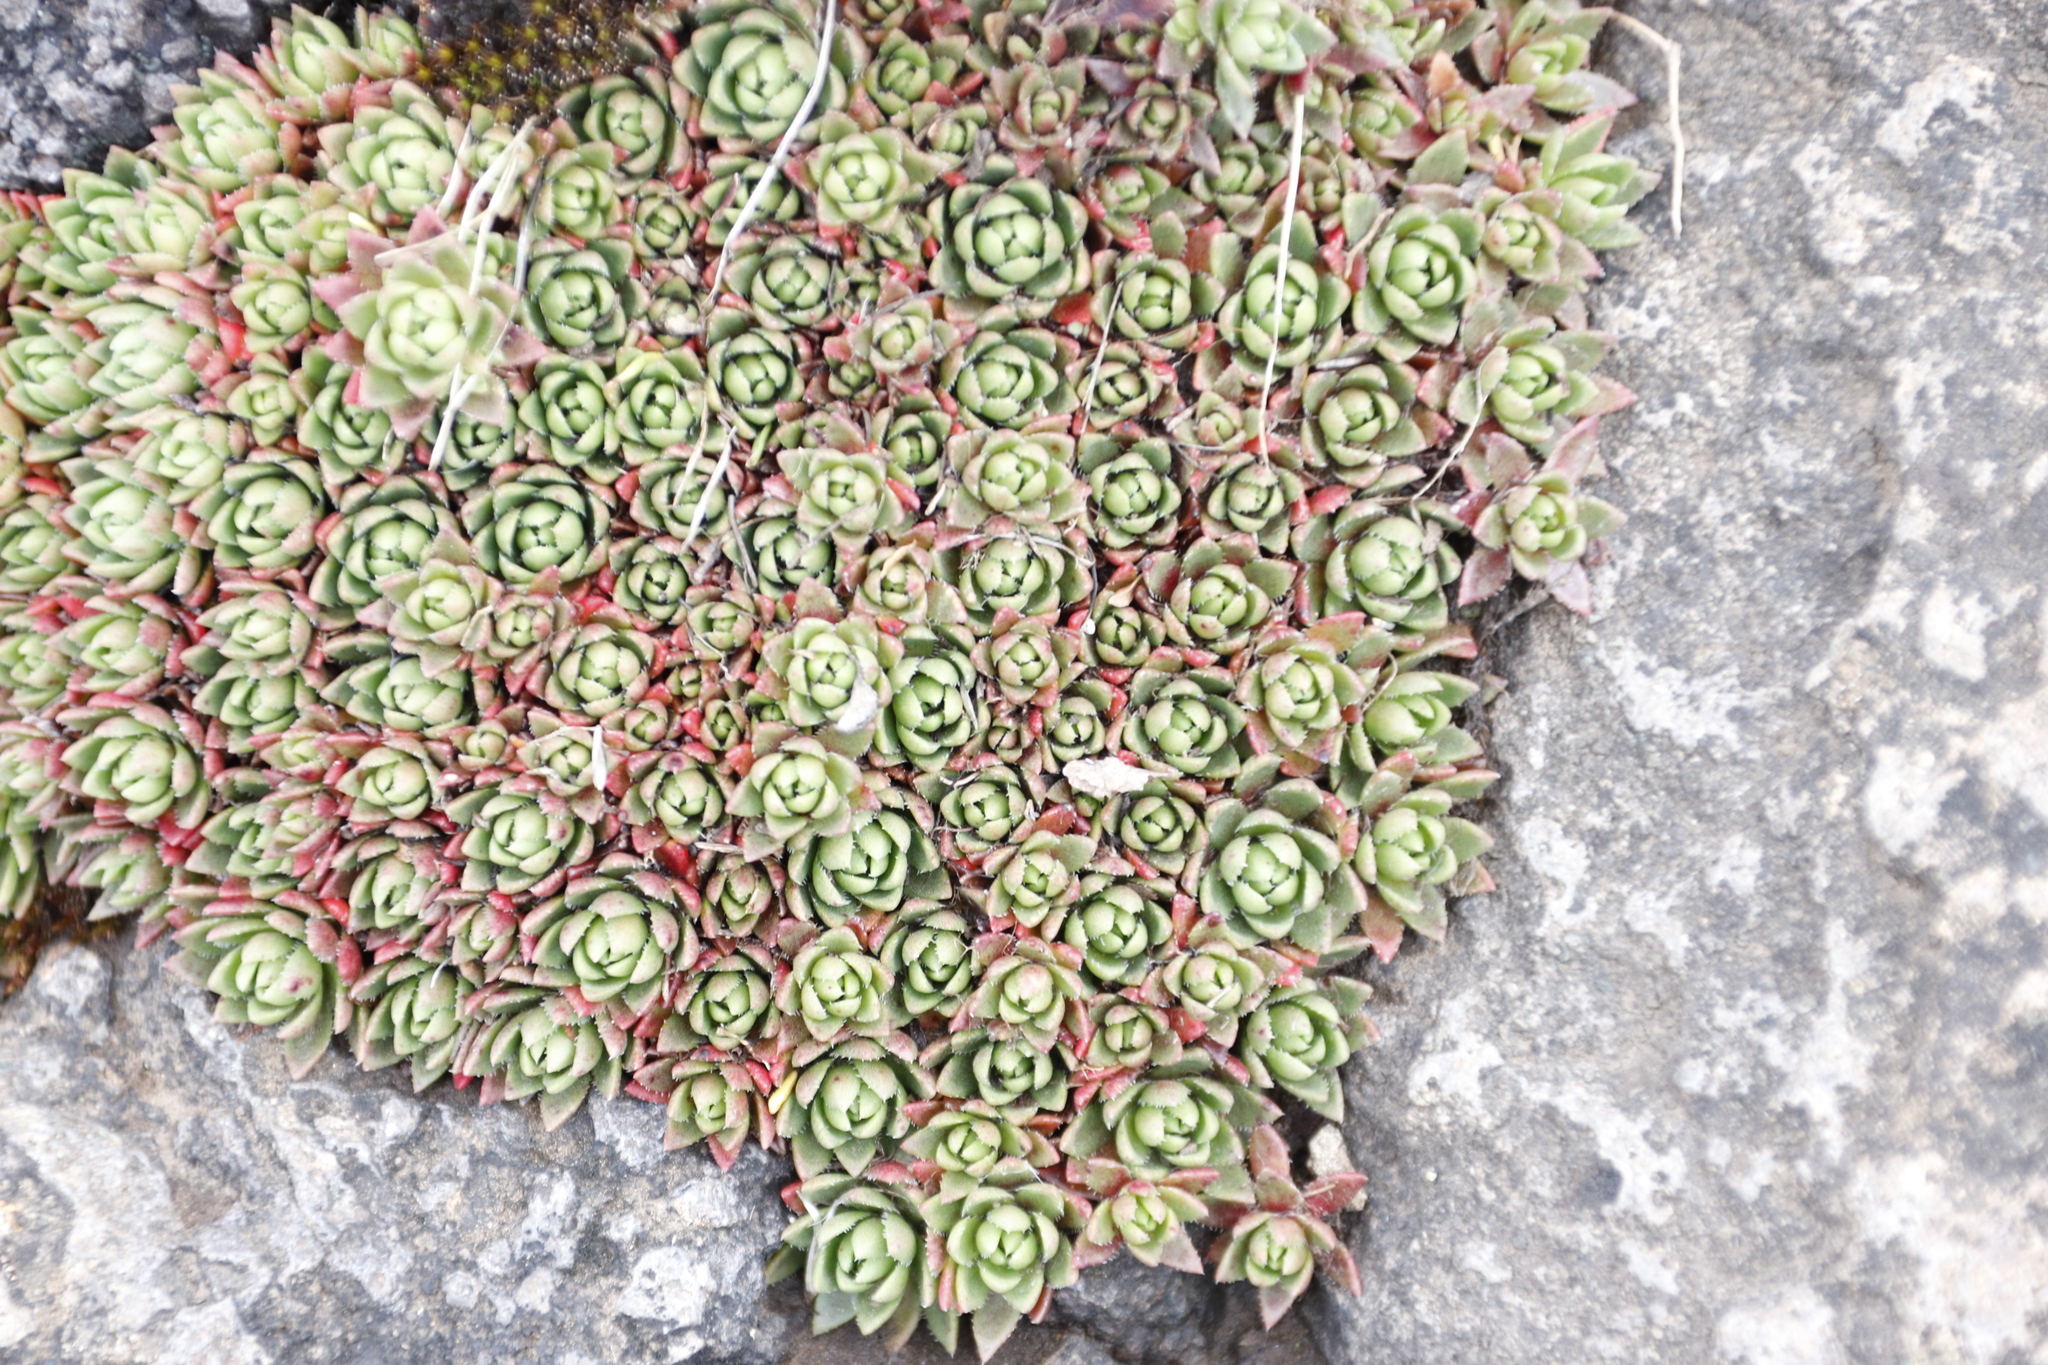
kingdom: Plantae
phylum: Tracheophyta
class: Magnoliopsida
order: Saxifragales
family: Crassulaceae
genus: Crassula
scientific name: Crassula setulosa
